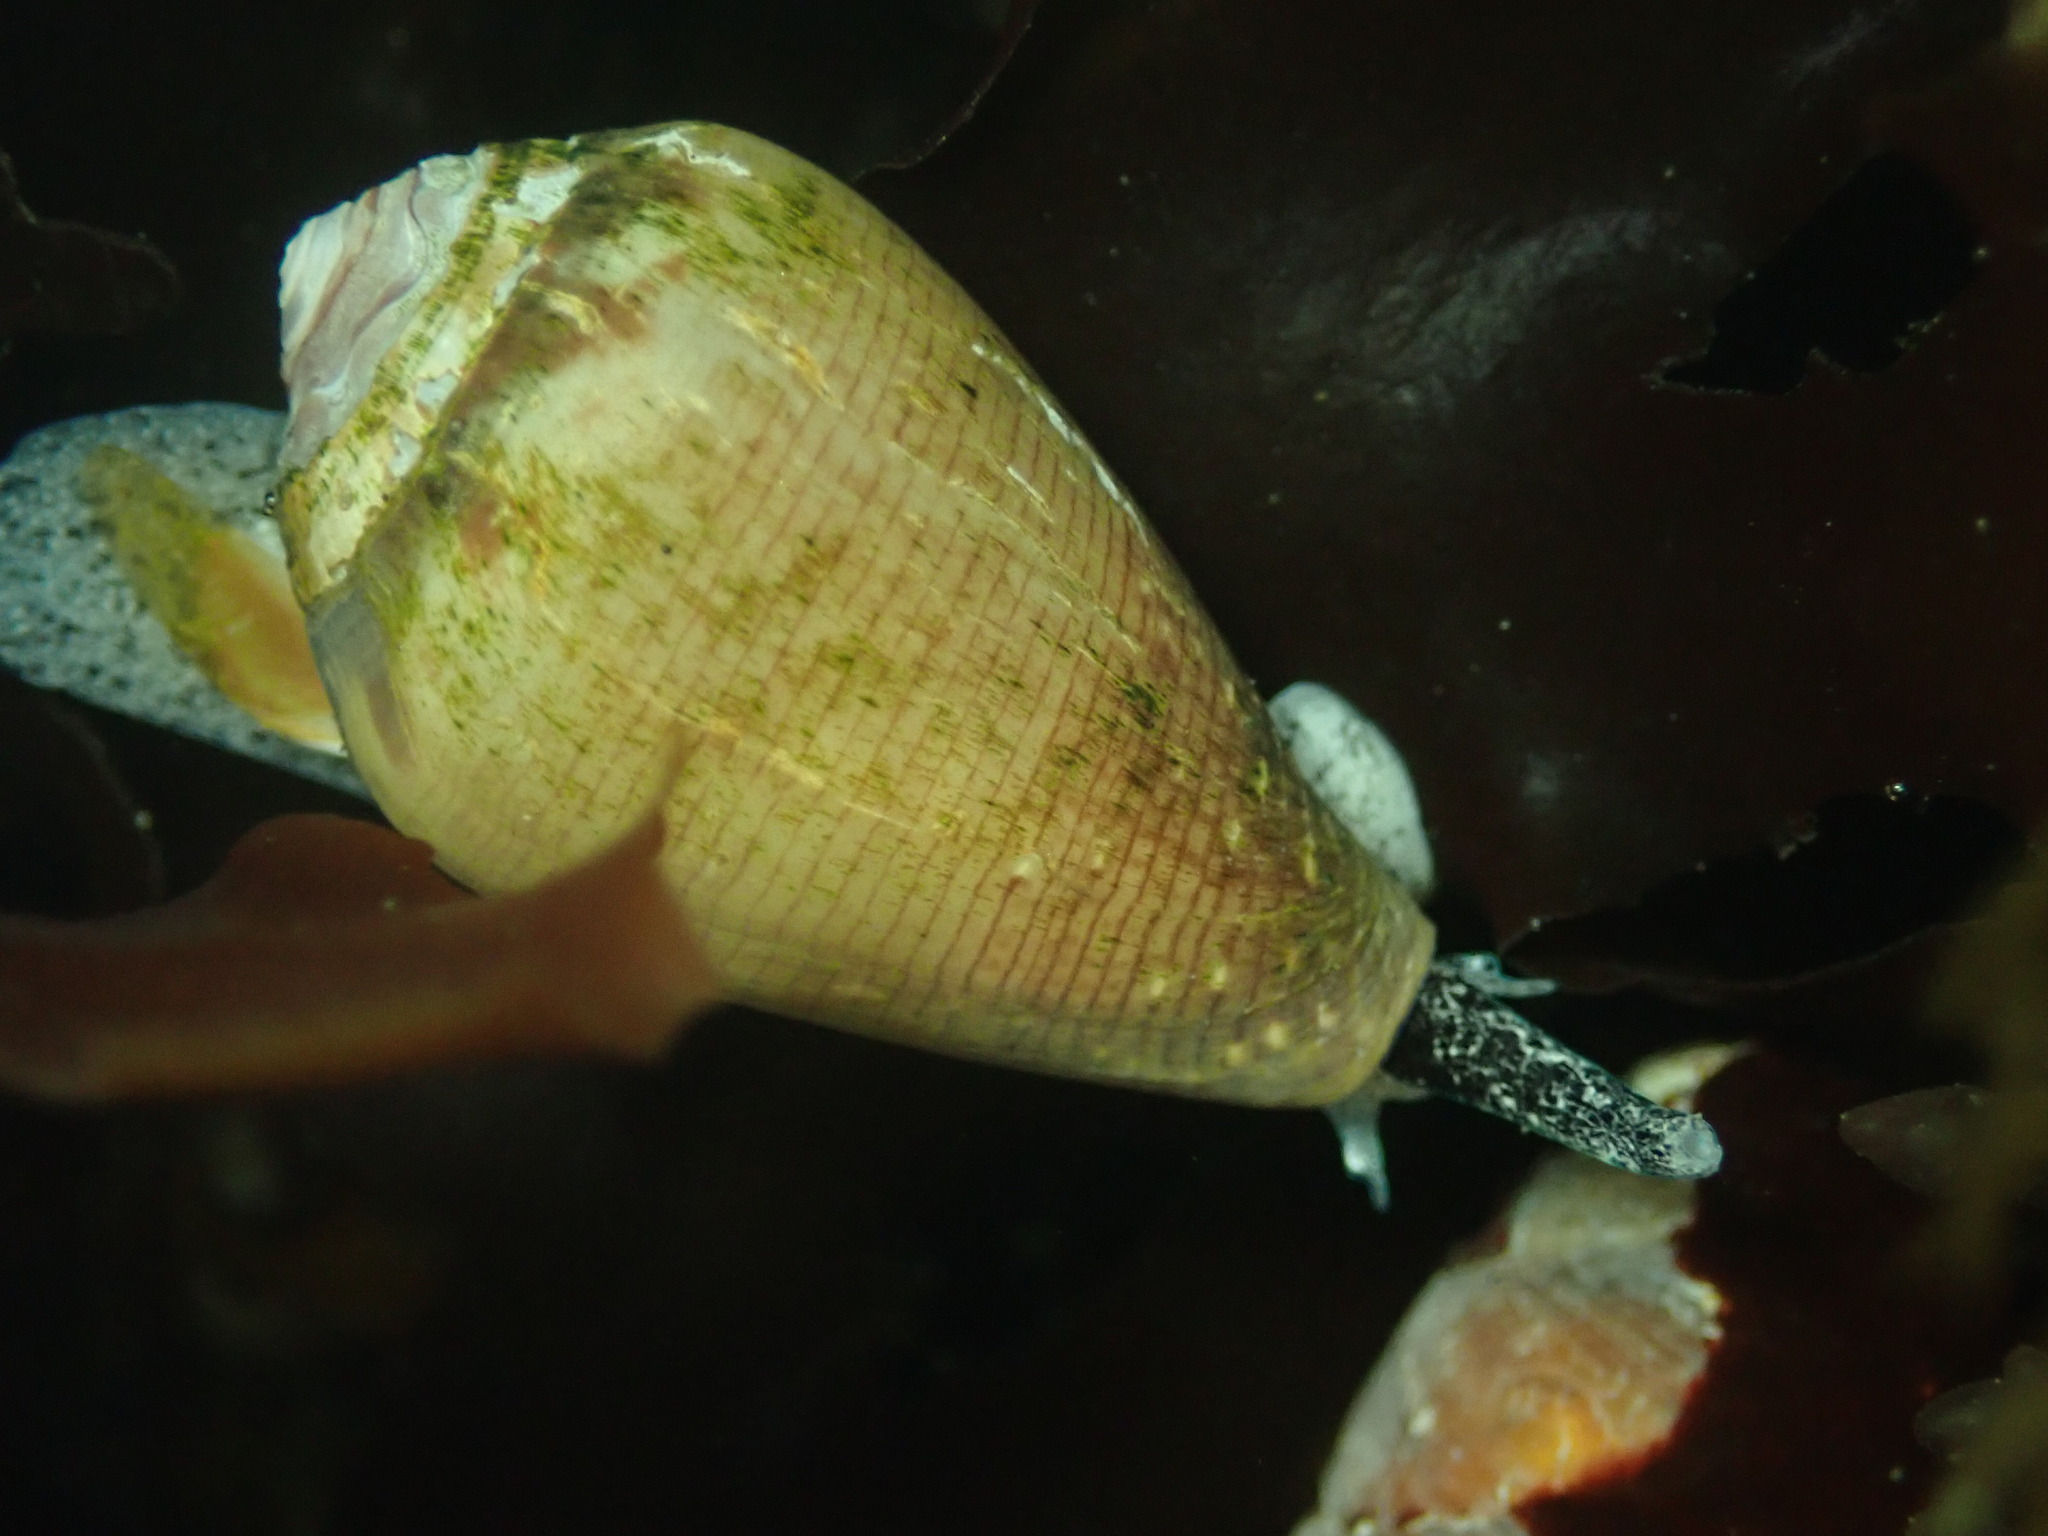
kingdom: Animalia
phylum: Mollusca
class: Gastropoda
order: Neogastropoda
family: Conidae
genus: Californiconus
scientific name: Californiconus californicus
